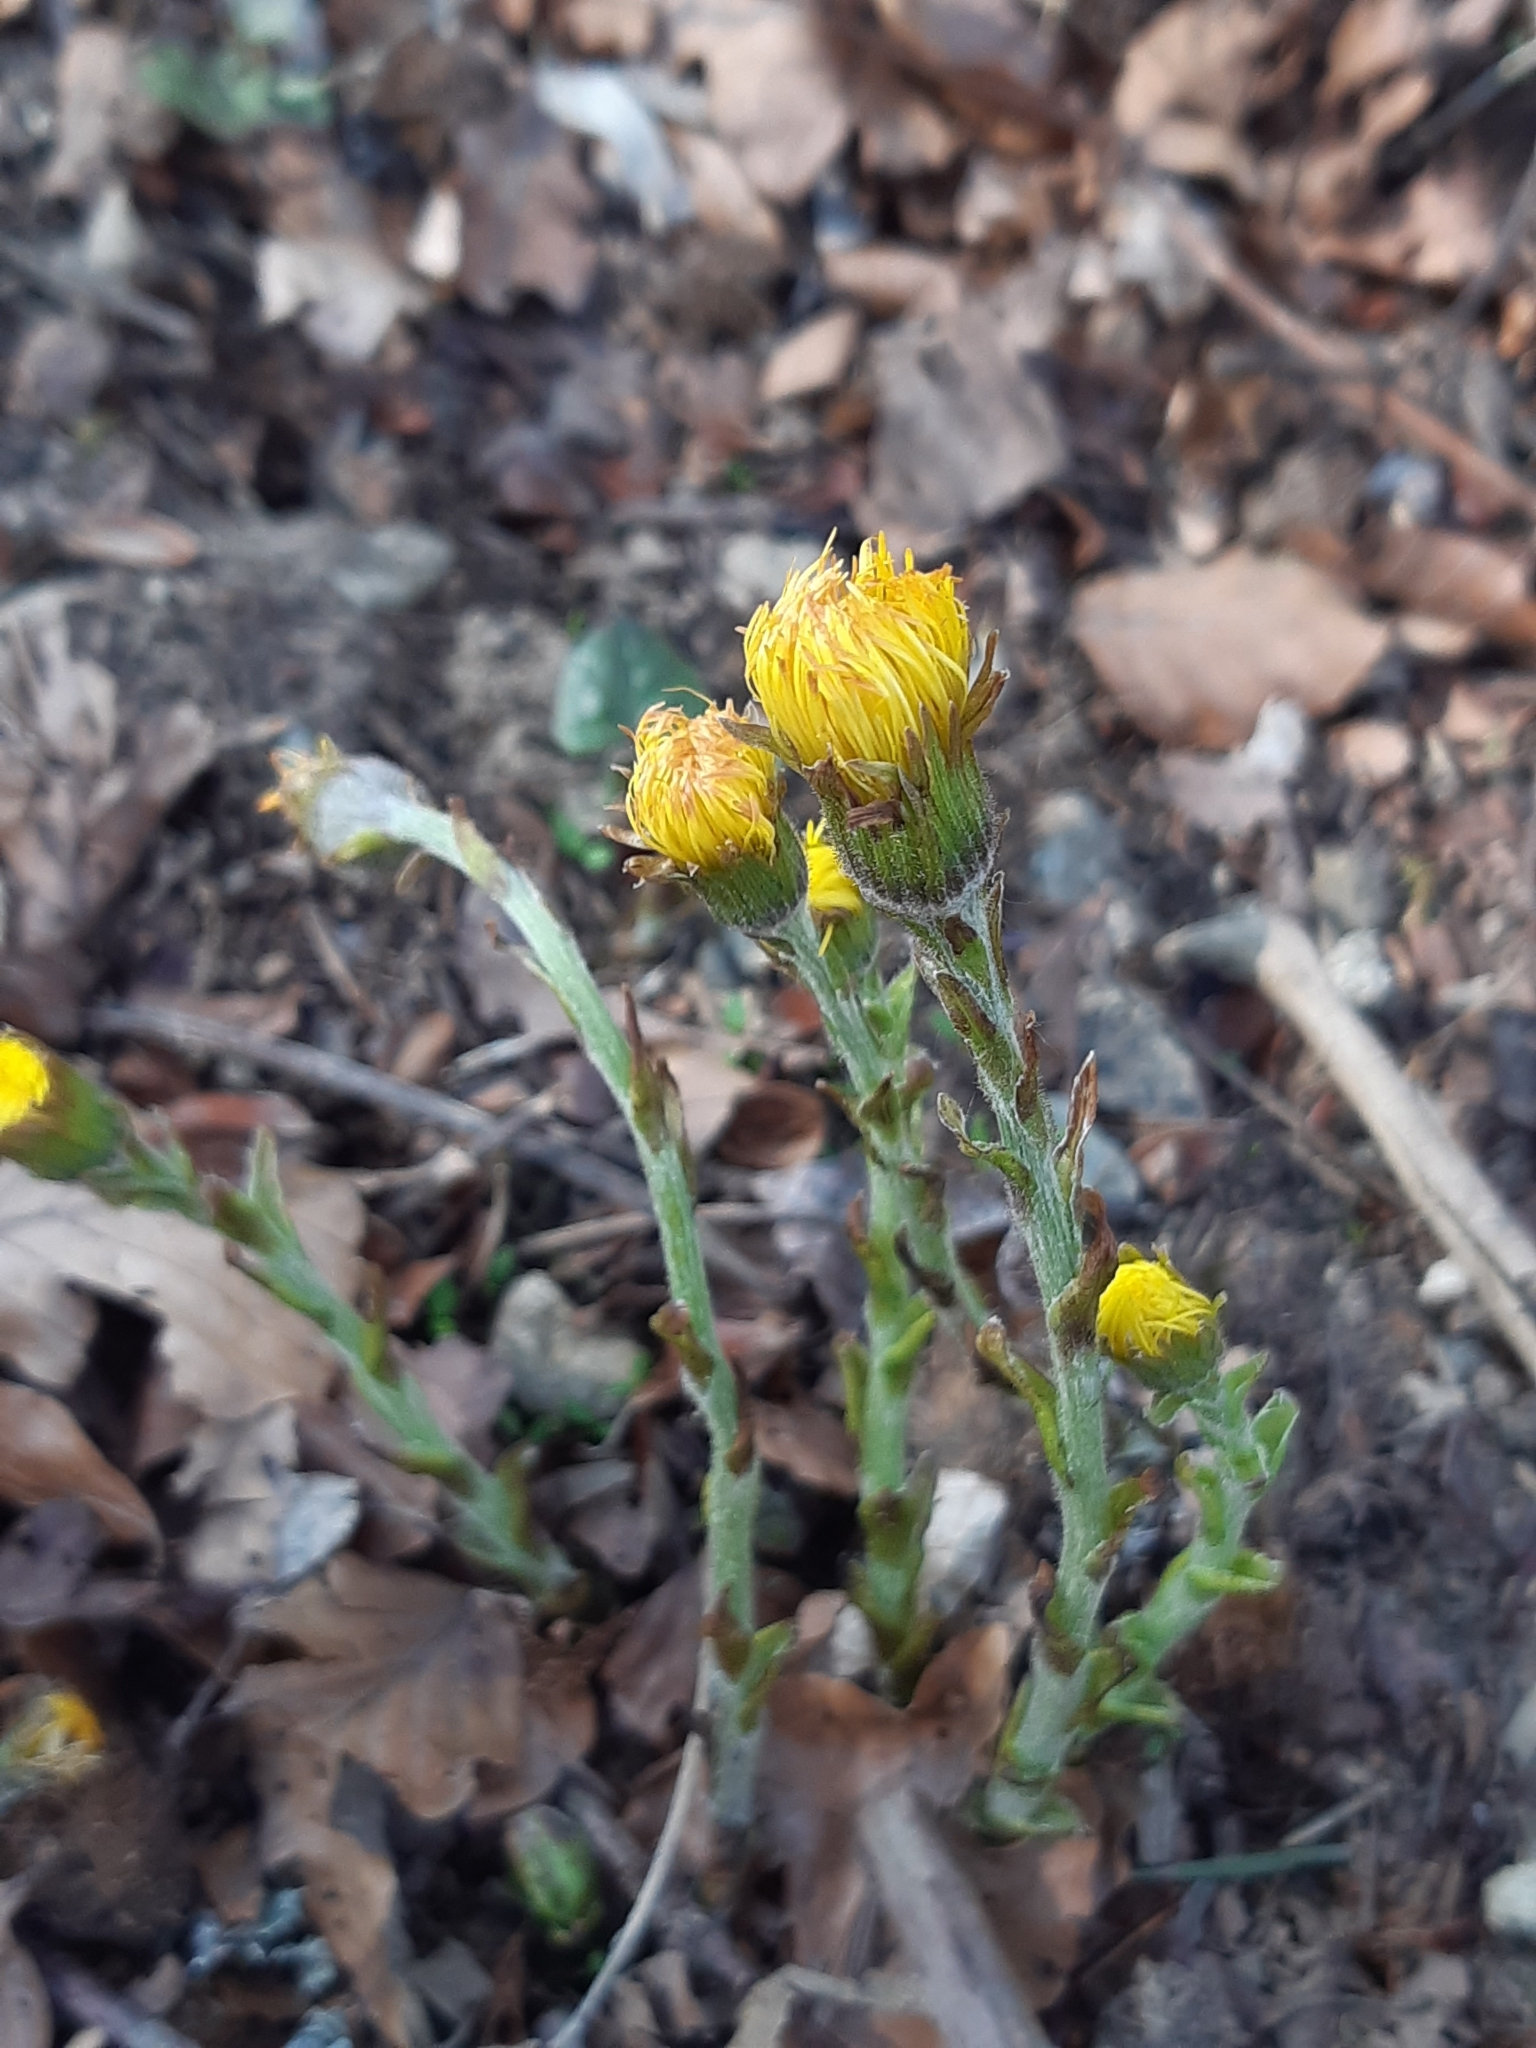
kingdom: Plantae
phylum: Tracheophyta
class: Magnoliopsida
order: Asterales
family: Asteraceae
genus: Tussilago
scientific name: Tussilago farfara
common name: Coltsfoot
